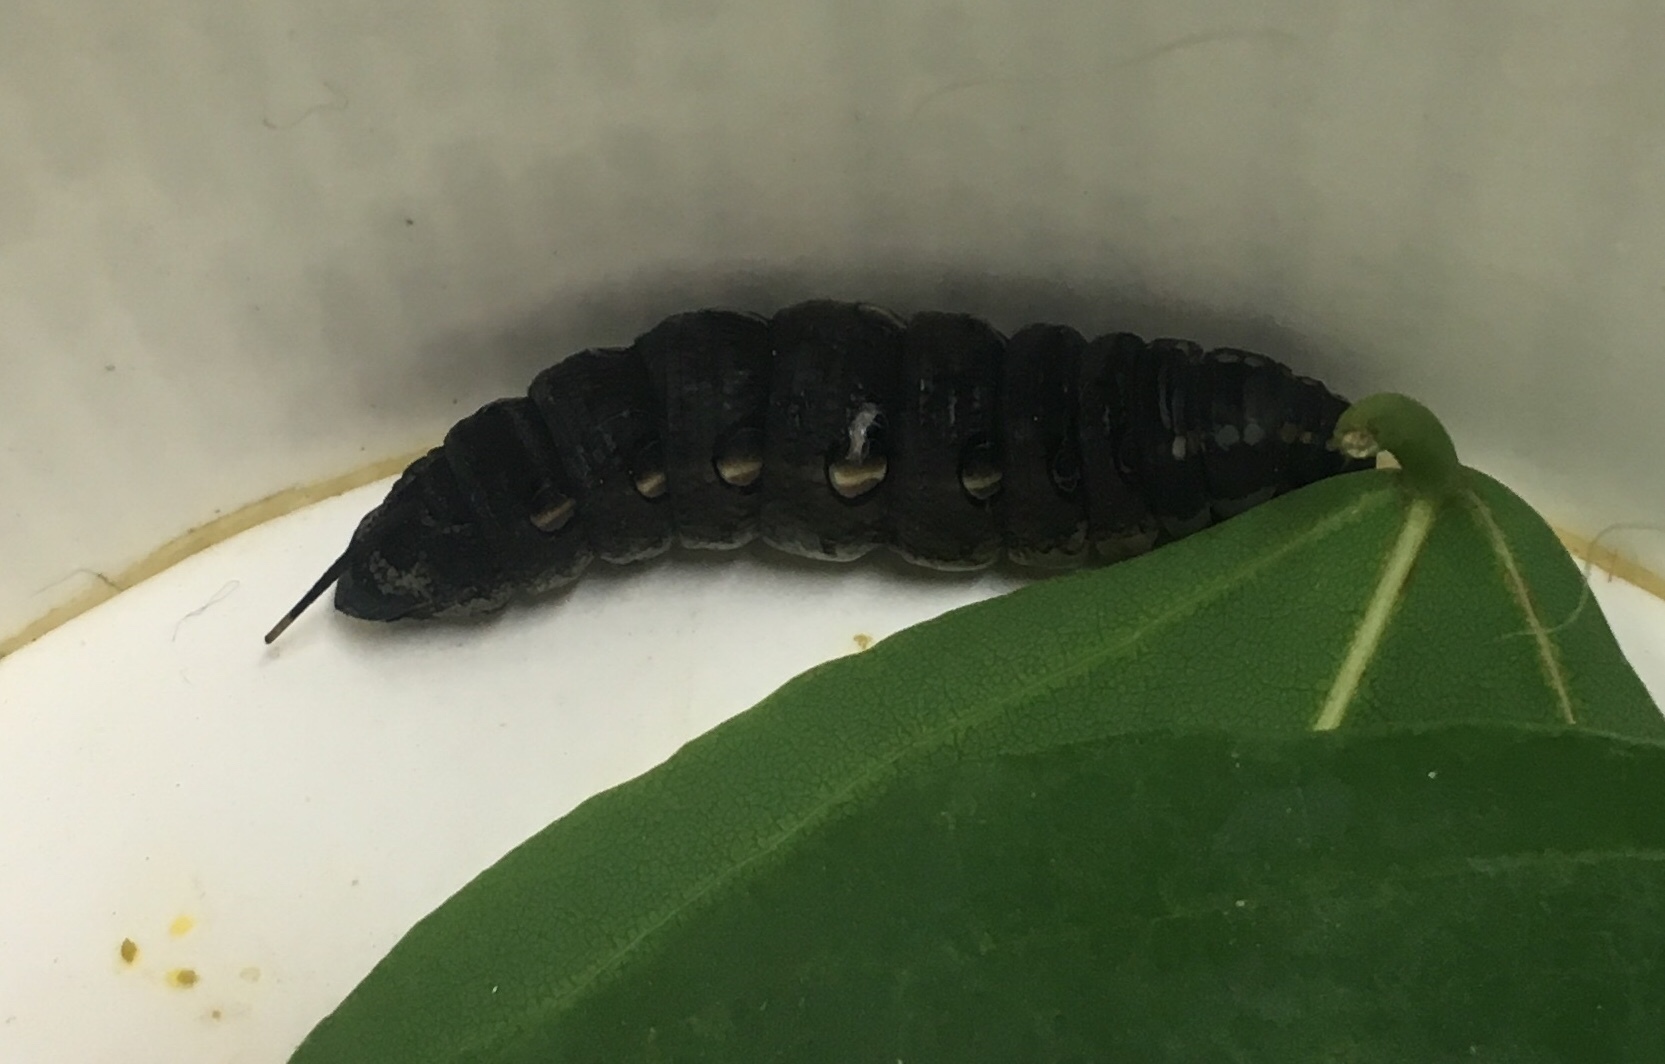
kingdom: Animalia
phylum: Arthropoda
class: Insecta
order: Lepidoptera
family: Sphingidae
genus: Theretra
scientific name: Theretra oldenlandiae
